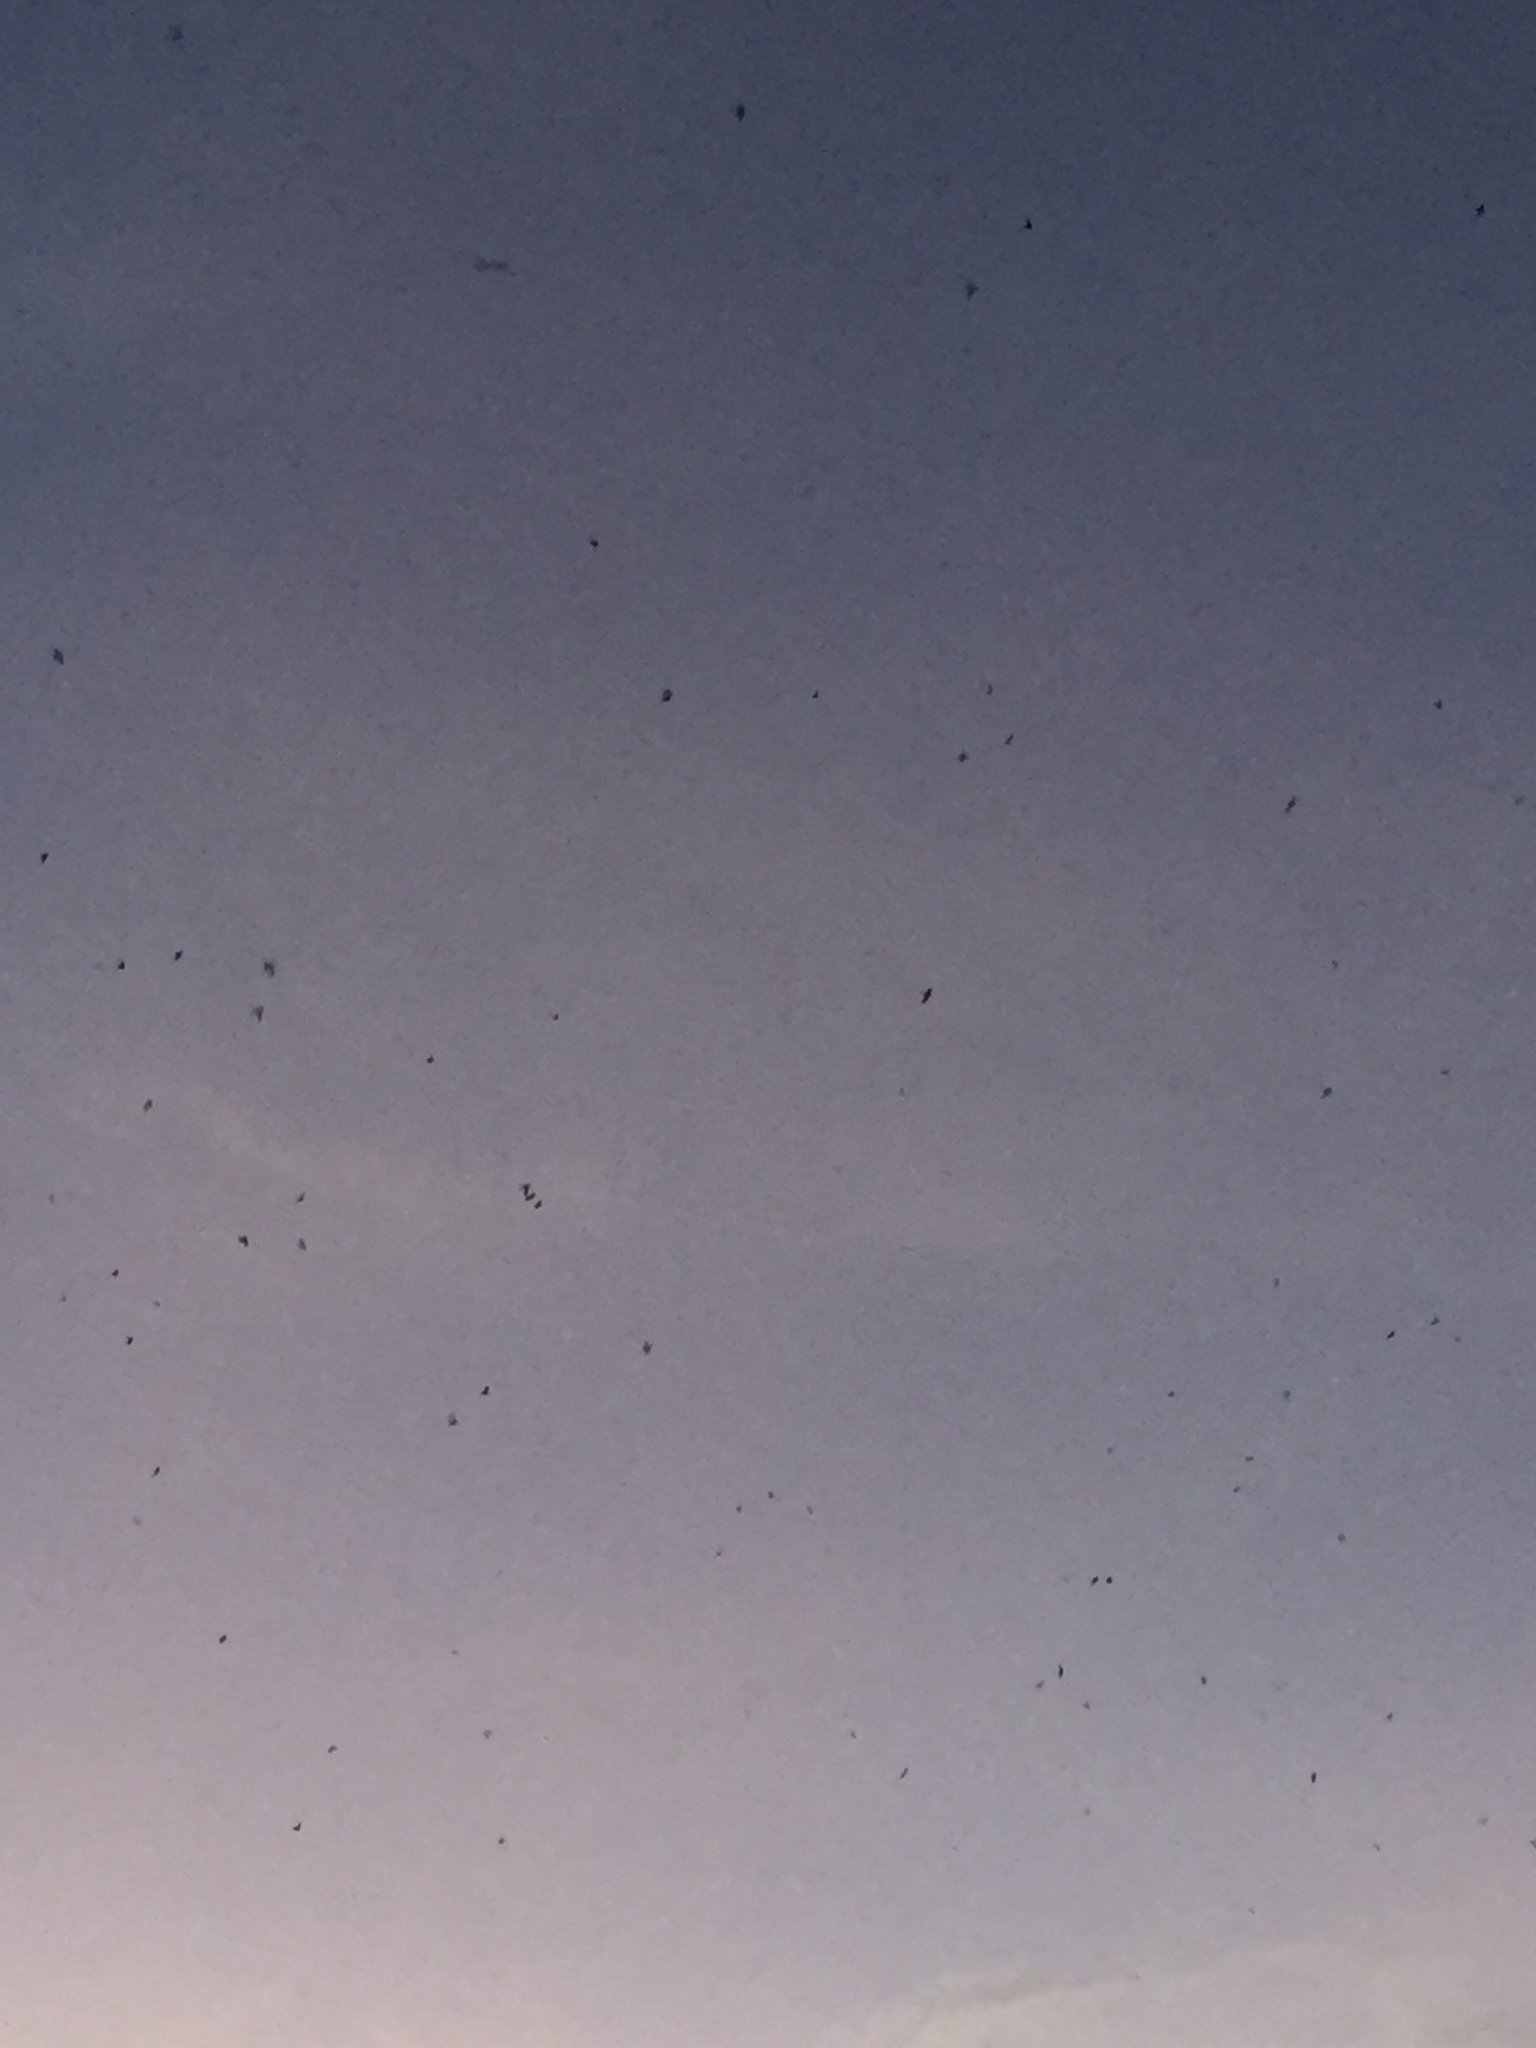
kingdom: Animalia
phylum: Chordata
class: Aves
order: Apodiformes
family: Apodidae
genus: Chaetura
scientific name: Chaetura pelagica
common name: Chimney swift
